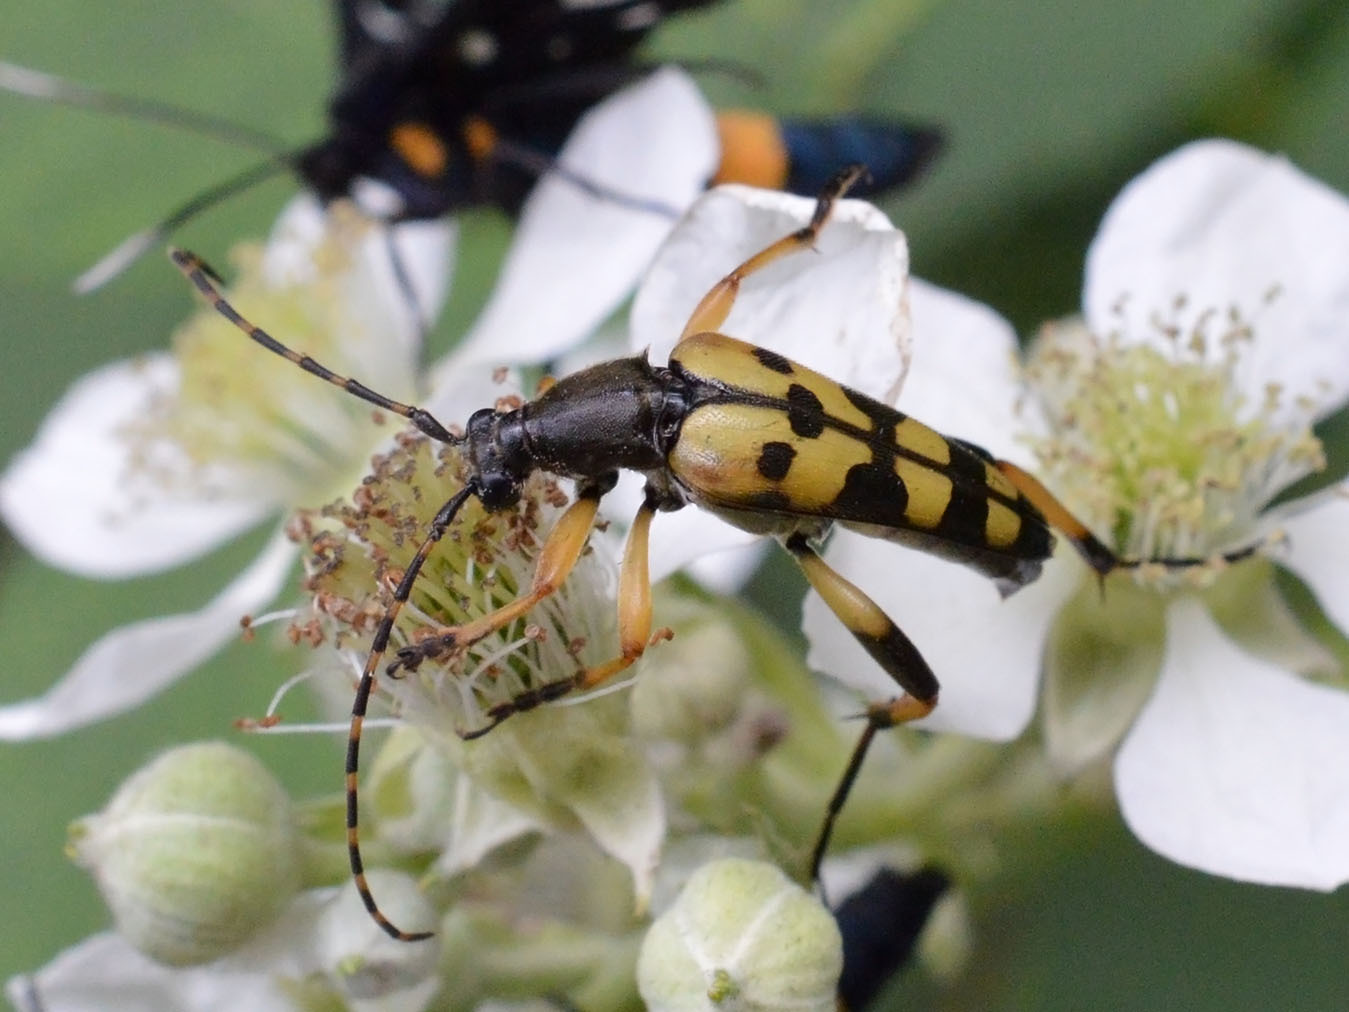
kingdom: Animalia
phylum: Arthropoda
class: Insecta
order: Coleoptera
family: Cerambycidae
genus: Rutpela
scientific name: Rutpela maculata
